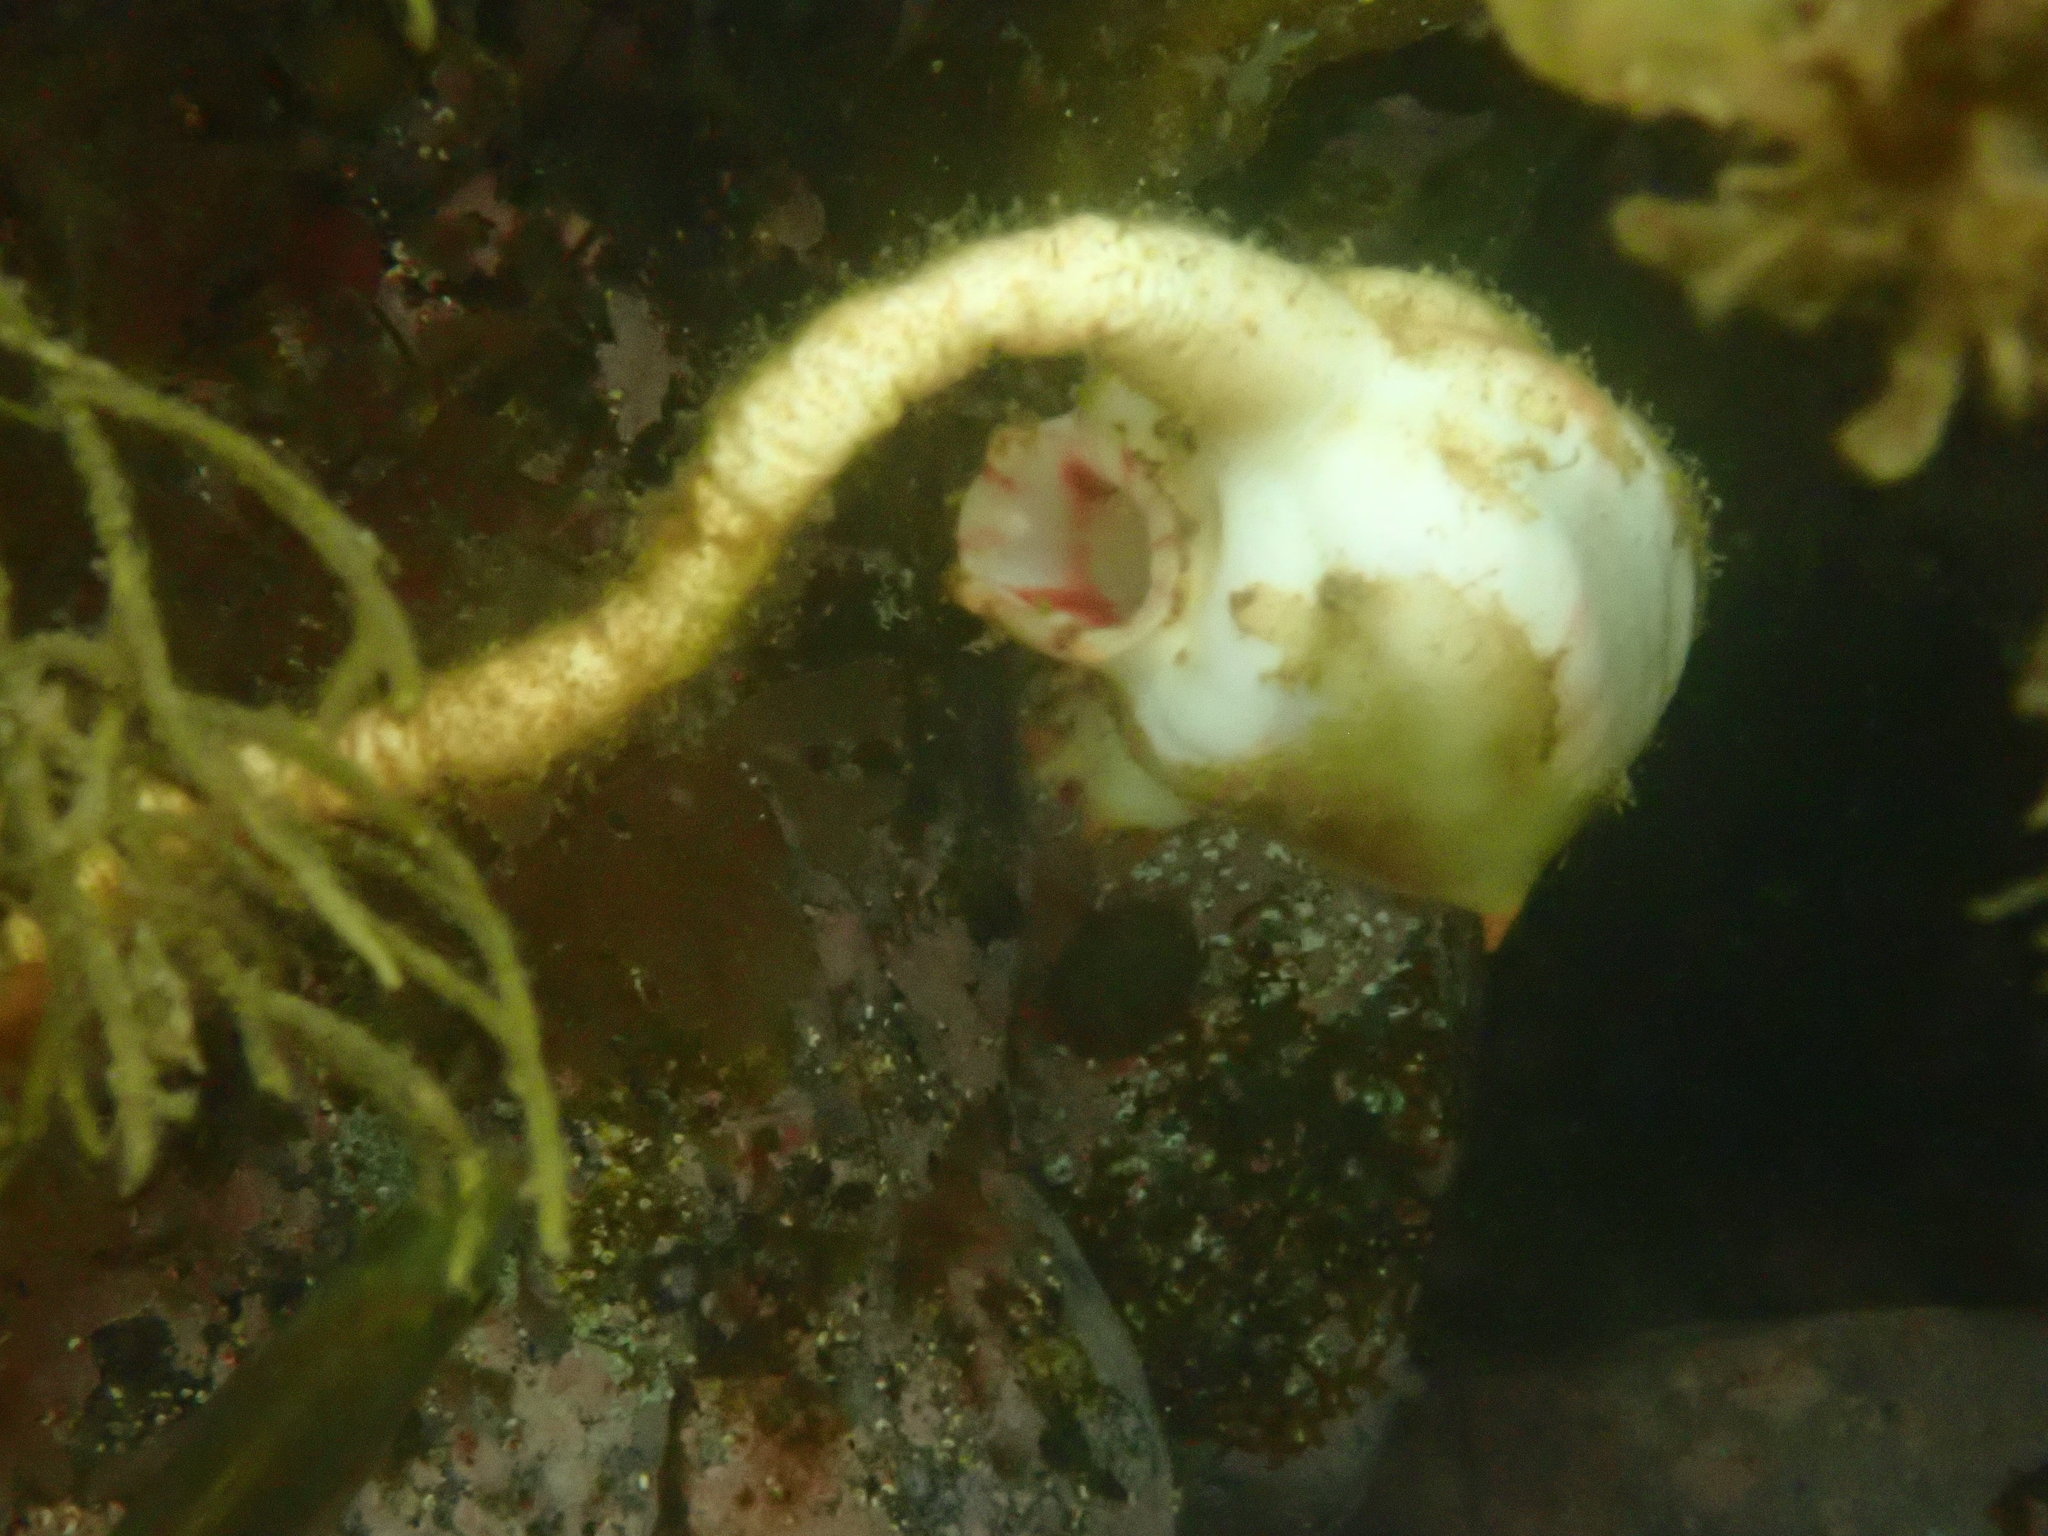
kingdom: Animalia
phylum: Chordata
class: Ascidiacea
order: Stolidobranchia
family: Pyuridae
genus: Pyura
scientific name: Pyura pachydermatina
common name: Sea tulip
